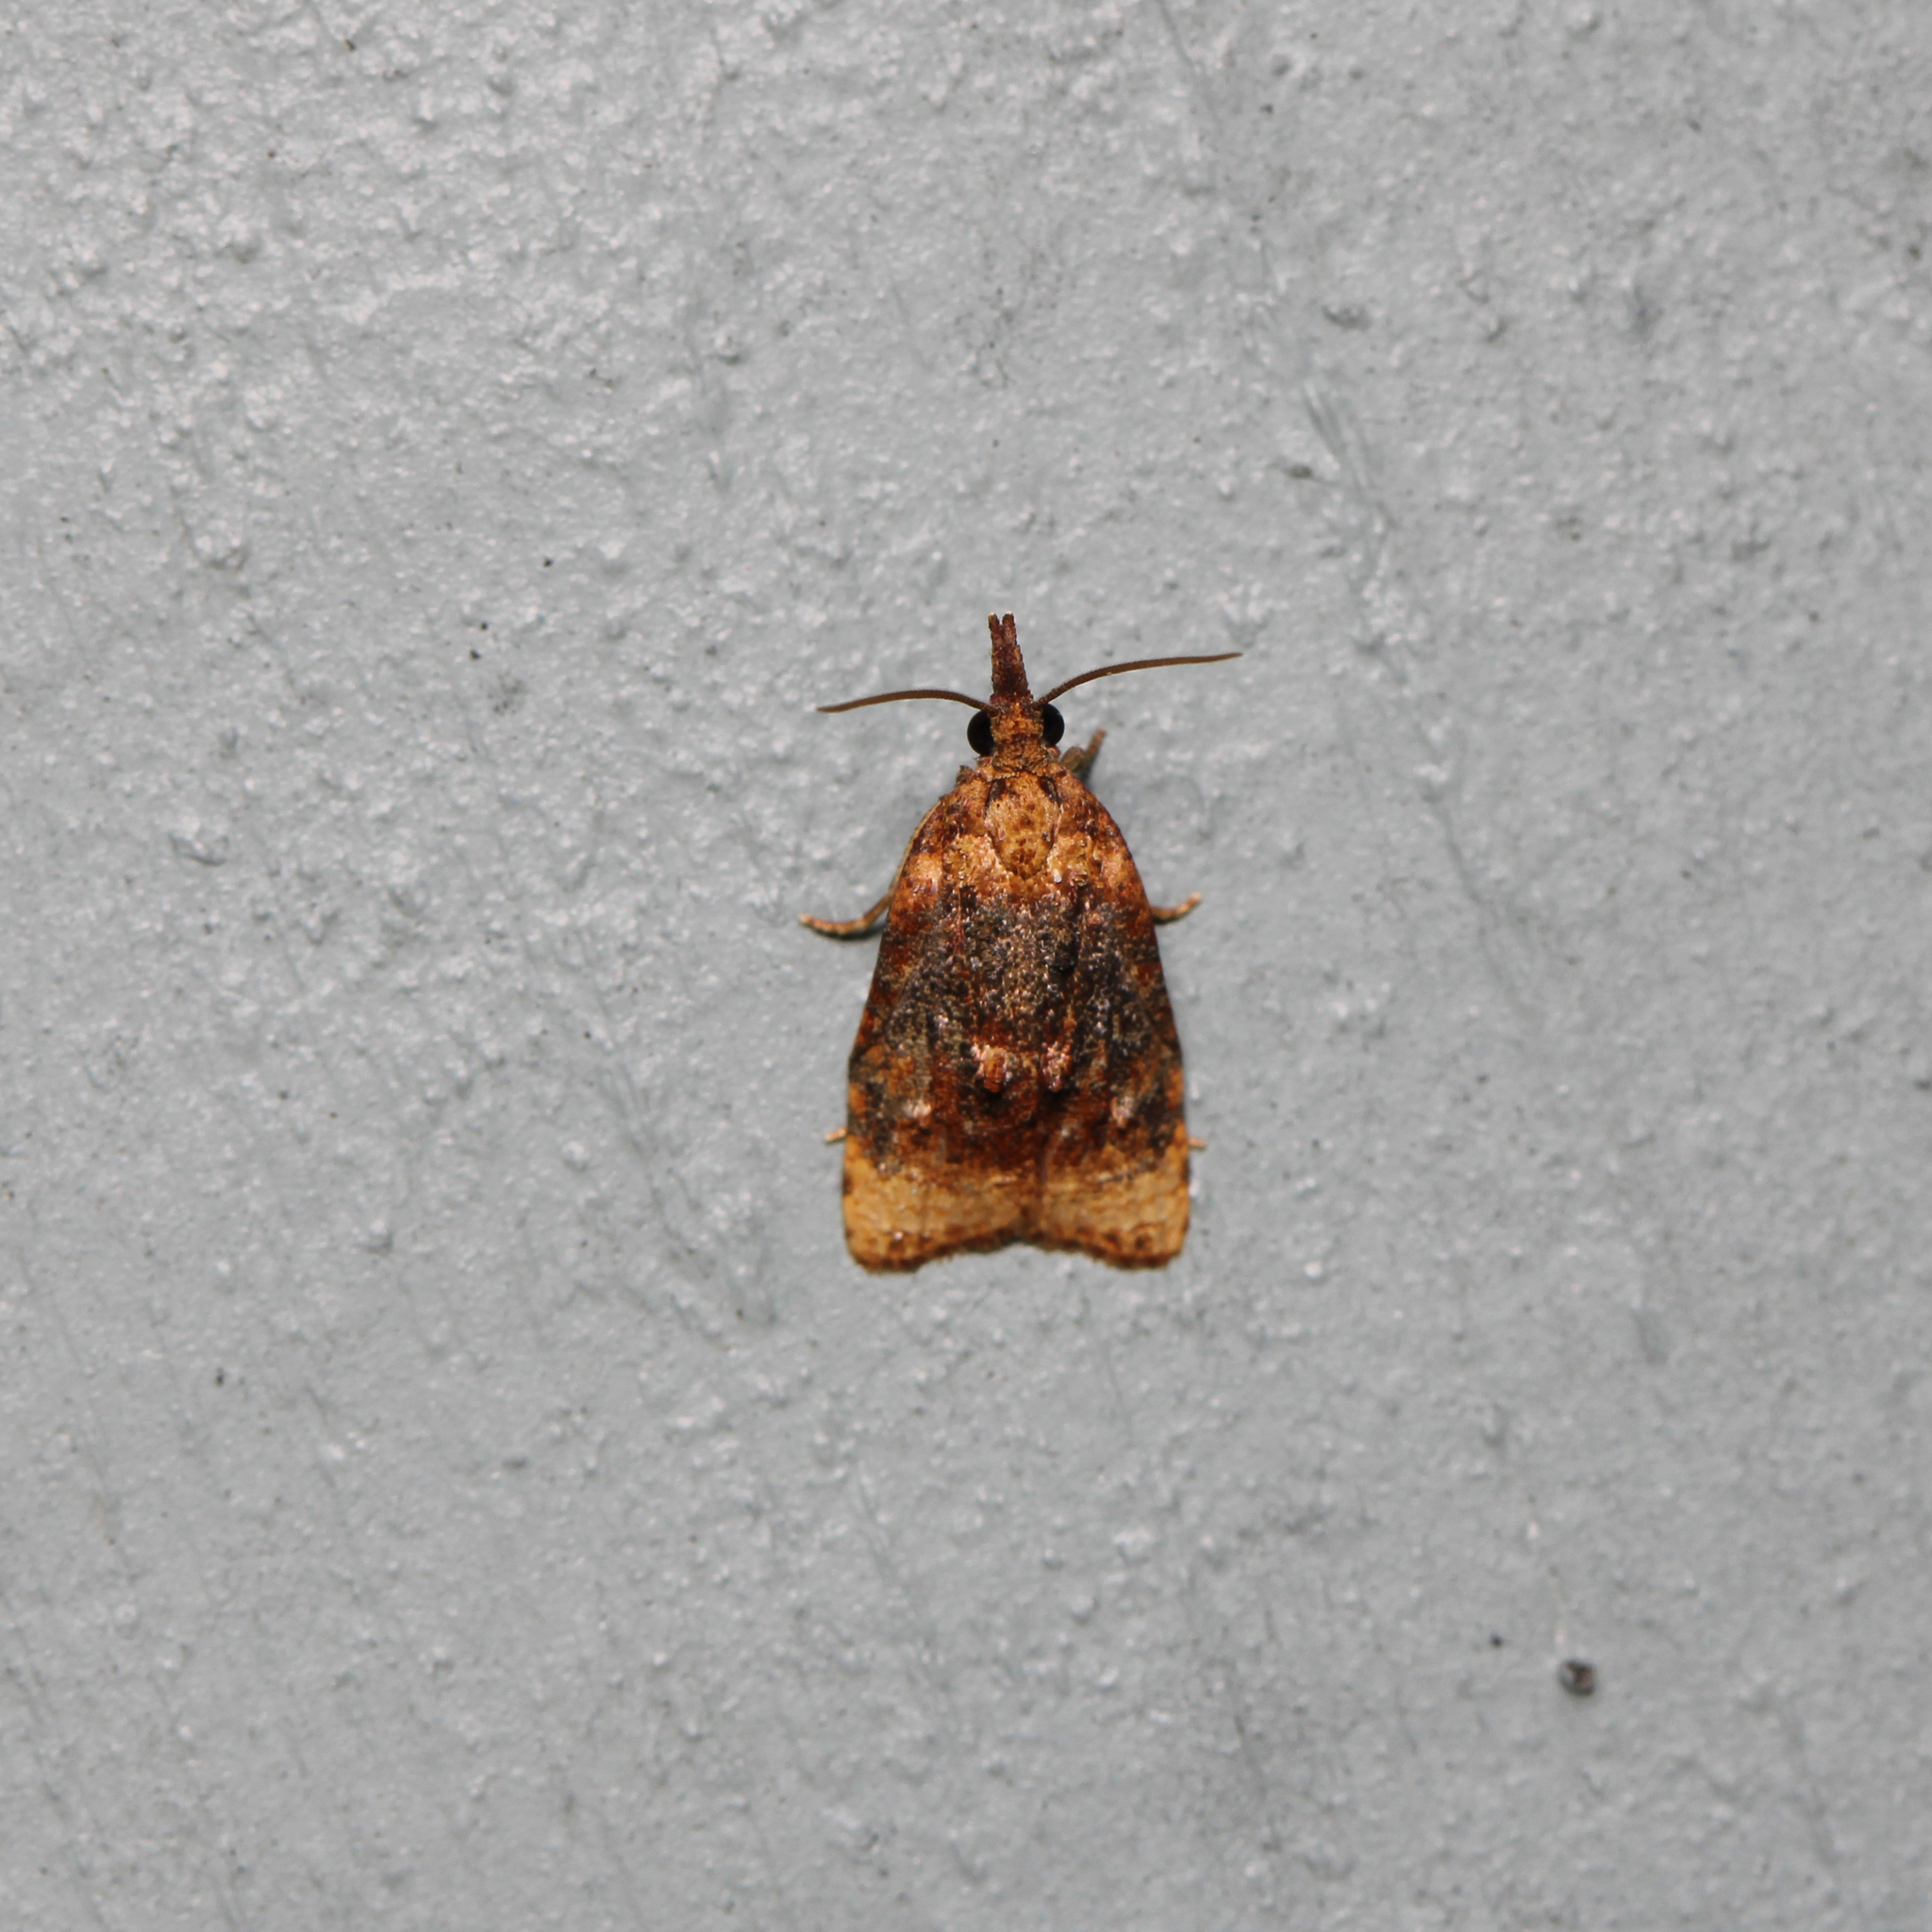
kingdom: Animalia
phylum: Arthropoda
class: Insecta
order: Lepidoptera
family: Tortricidae
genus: Platynota
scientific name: Platynota flavedana
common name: Black-shaded platynota moth
